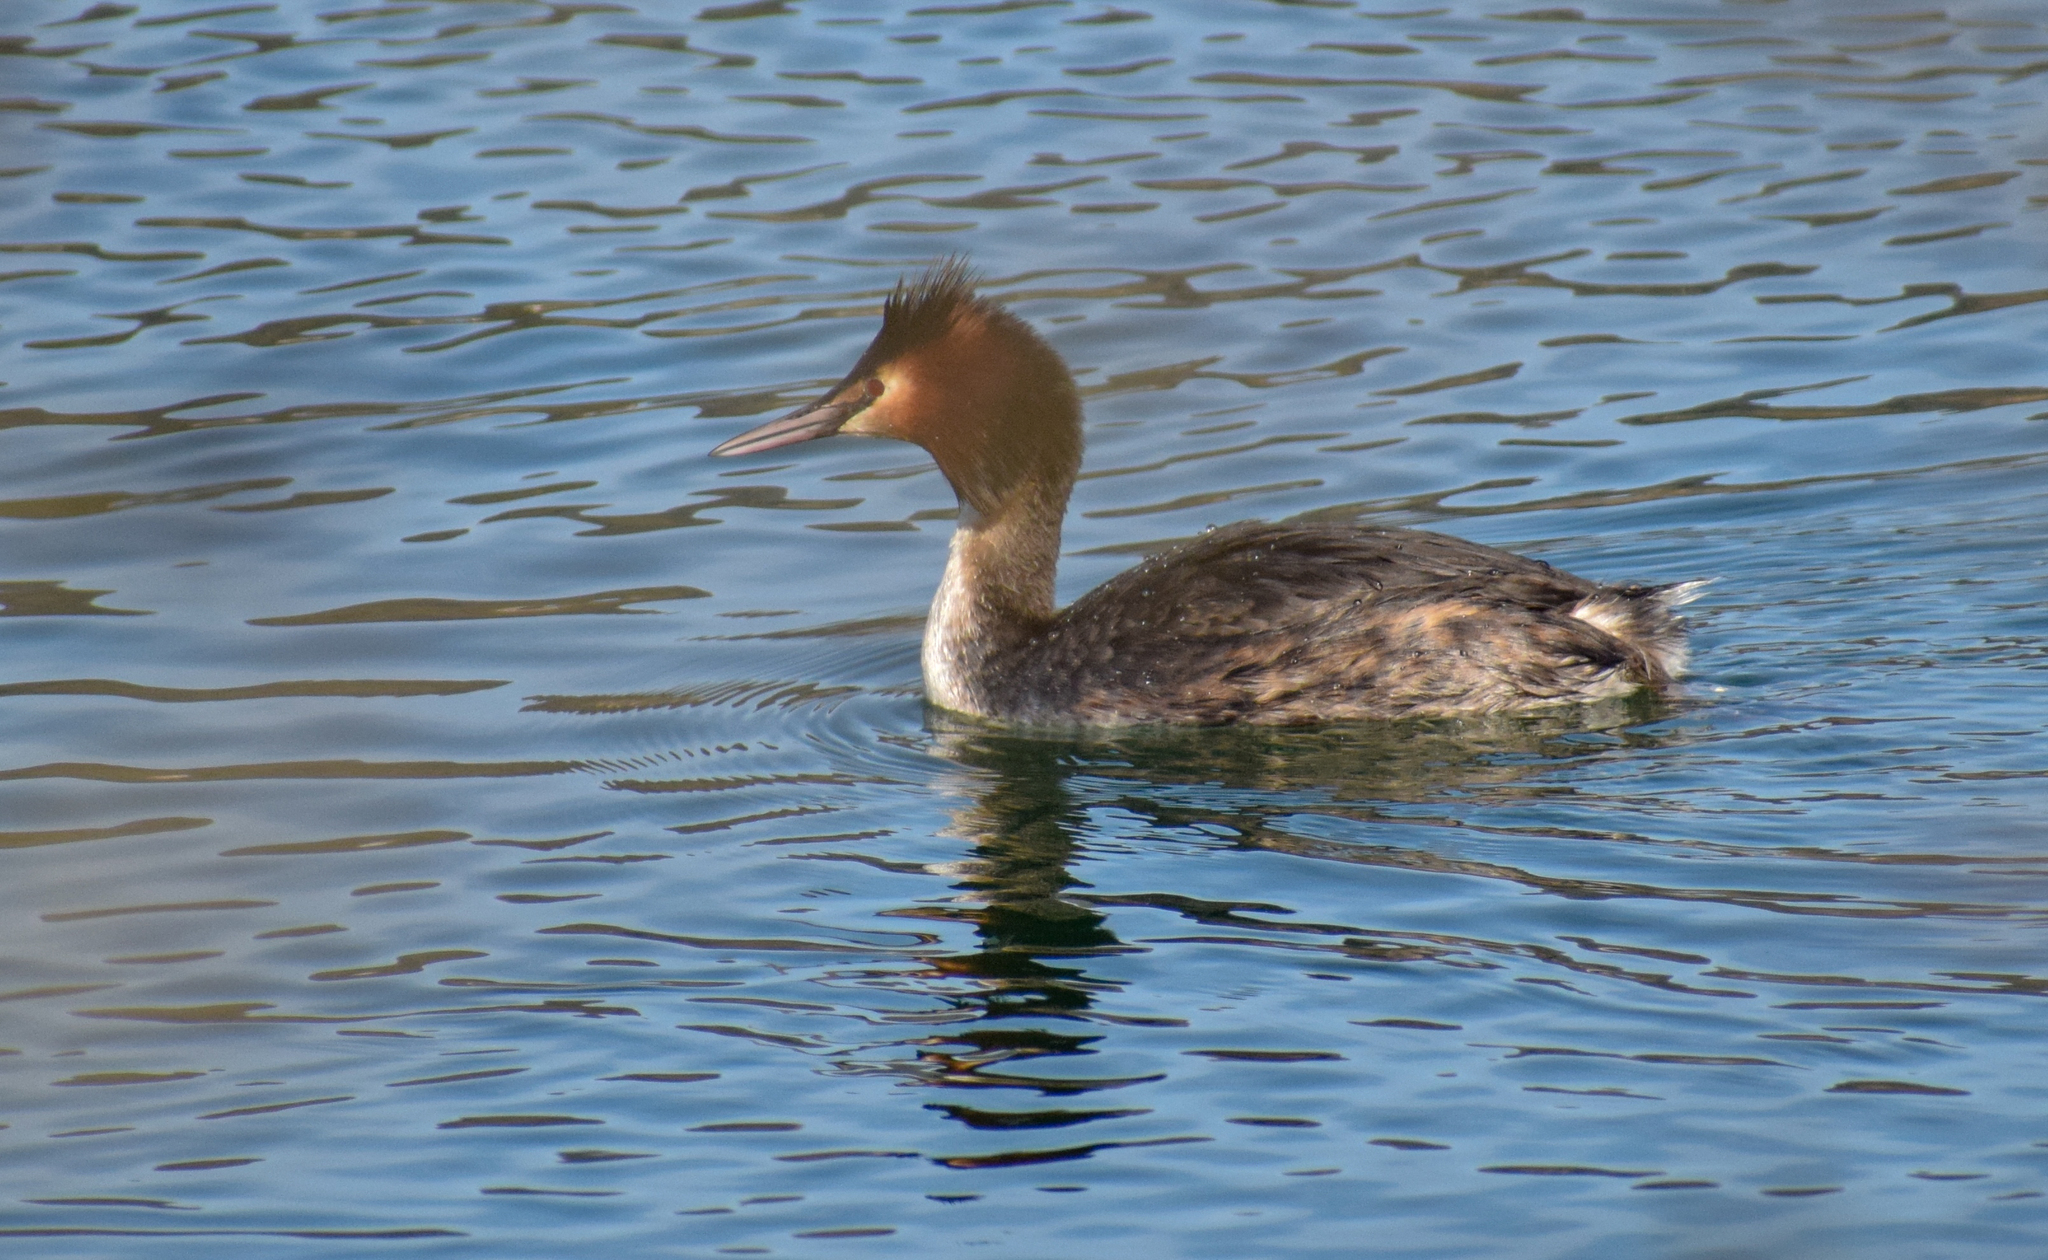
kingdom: Animalia
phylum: Chordata
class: Aves
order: Podicipediformes
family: Podicipedidae
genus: Podiceps
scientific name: Podiceps cristatus
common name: Great crested grebe
